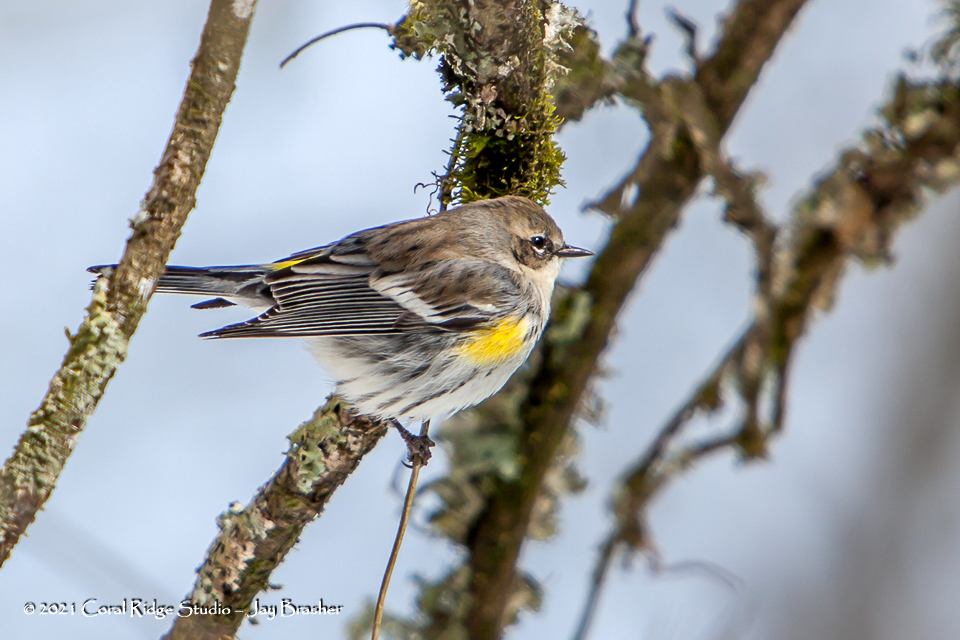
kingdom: Animalia
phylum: Chordata
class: Aves
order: Passeriformes
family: Parulidae
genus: Setophaga
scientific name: Setophaga coronata
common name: Myrtle warbler
